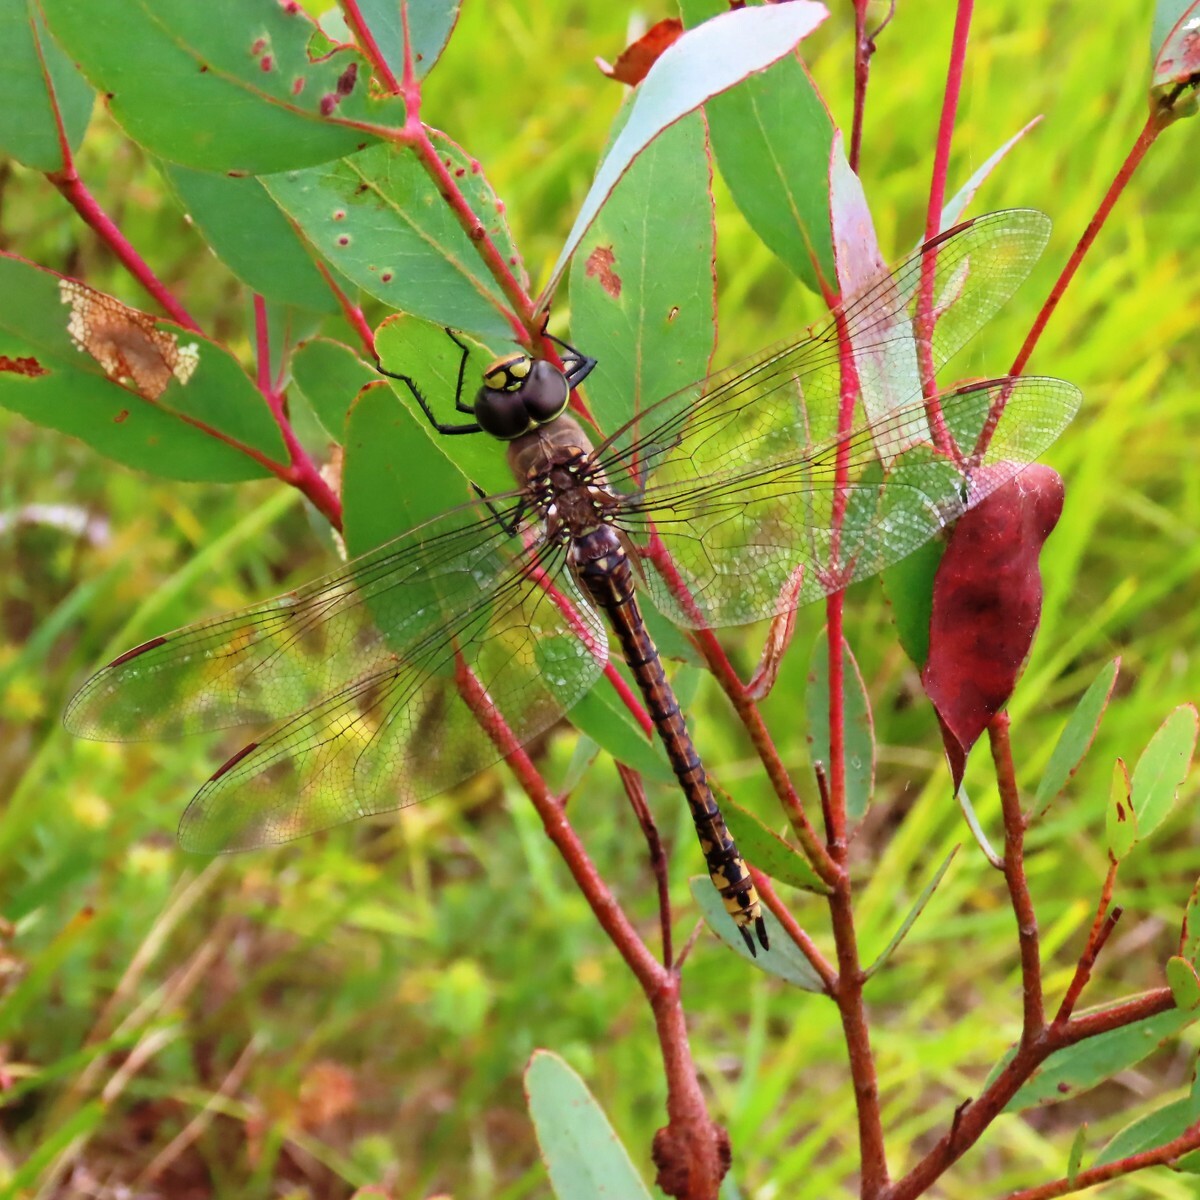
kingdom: Animalia
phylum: Arthropoda
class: Insecta
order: Odonata
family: Aeshnidae
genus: Aeshna
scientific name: Aeshna brevistyla
